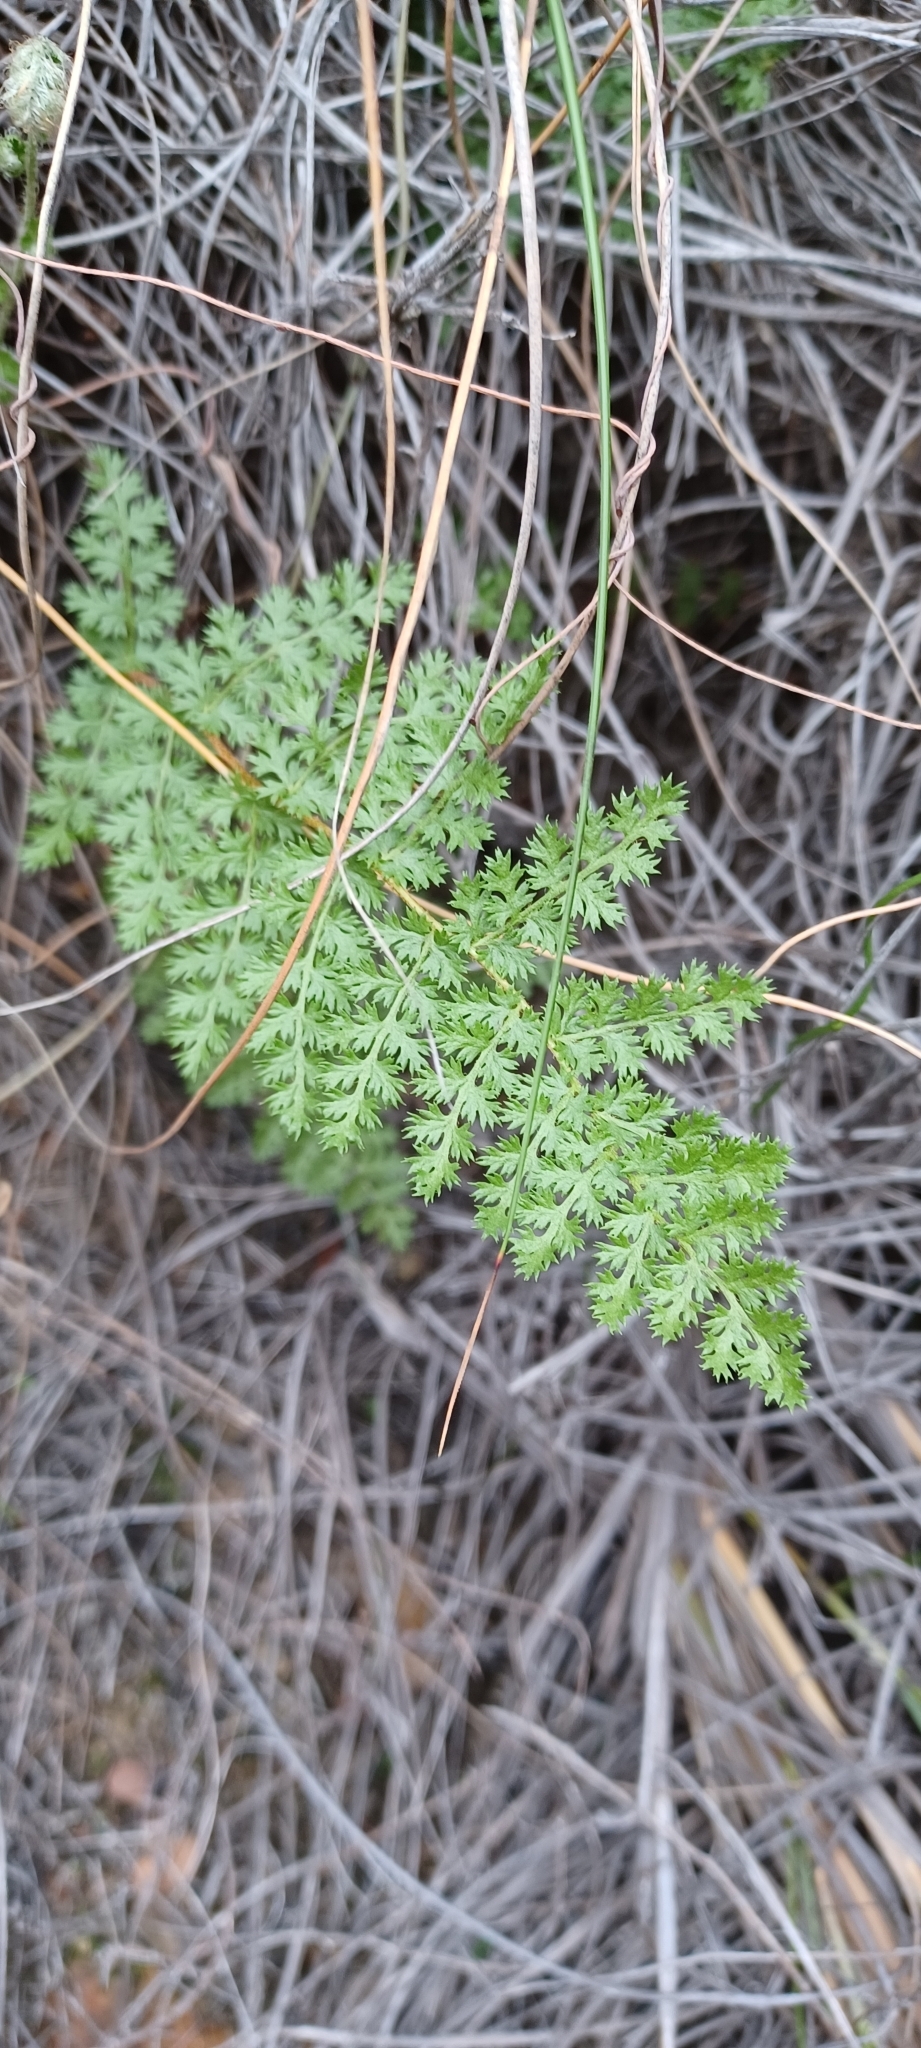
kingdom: Plantae
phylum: Tracheophyta
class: Polypodiopsida
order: Schizaeales
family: Anemiaceae
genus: Anemia
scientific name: Anemia caffrorum
